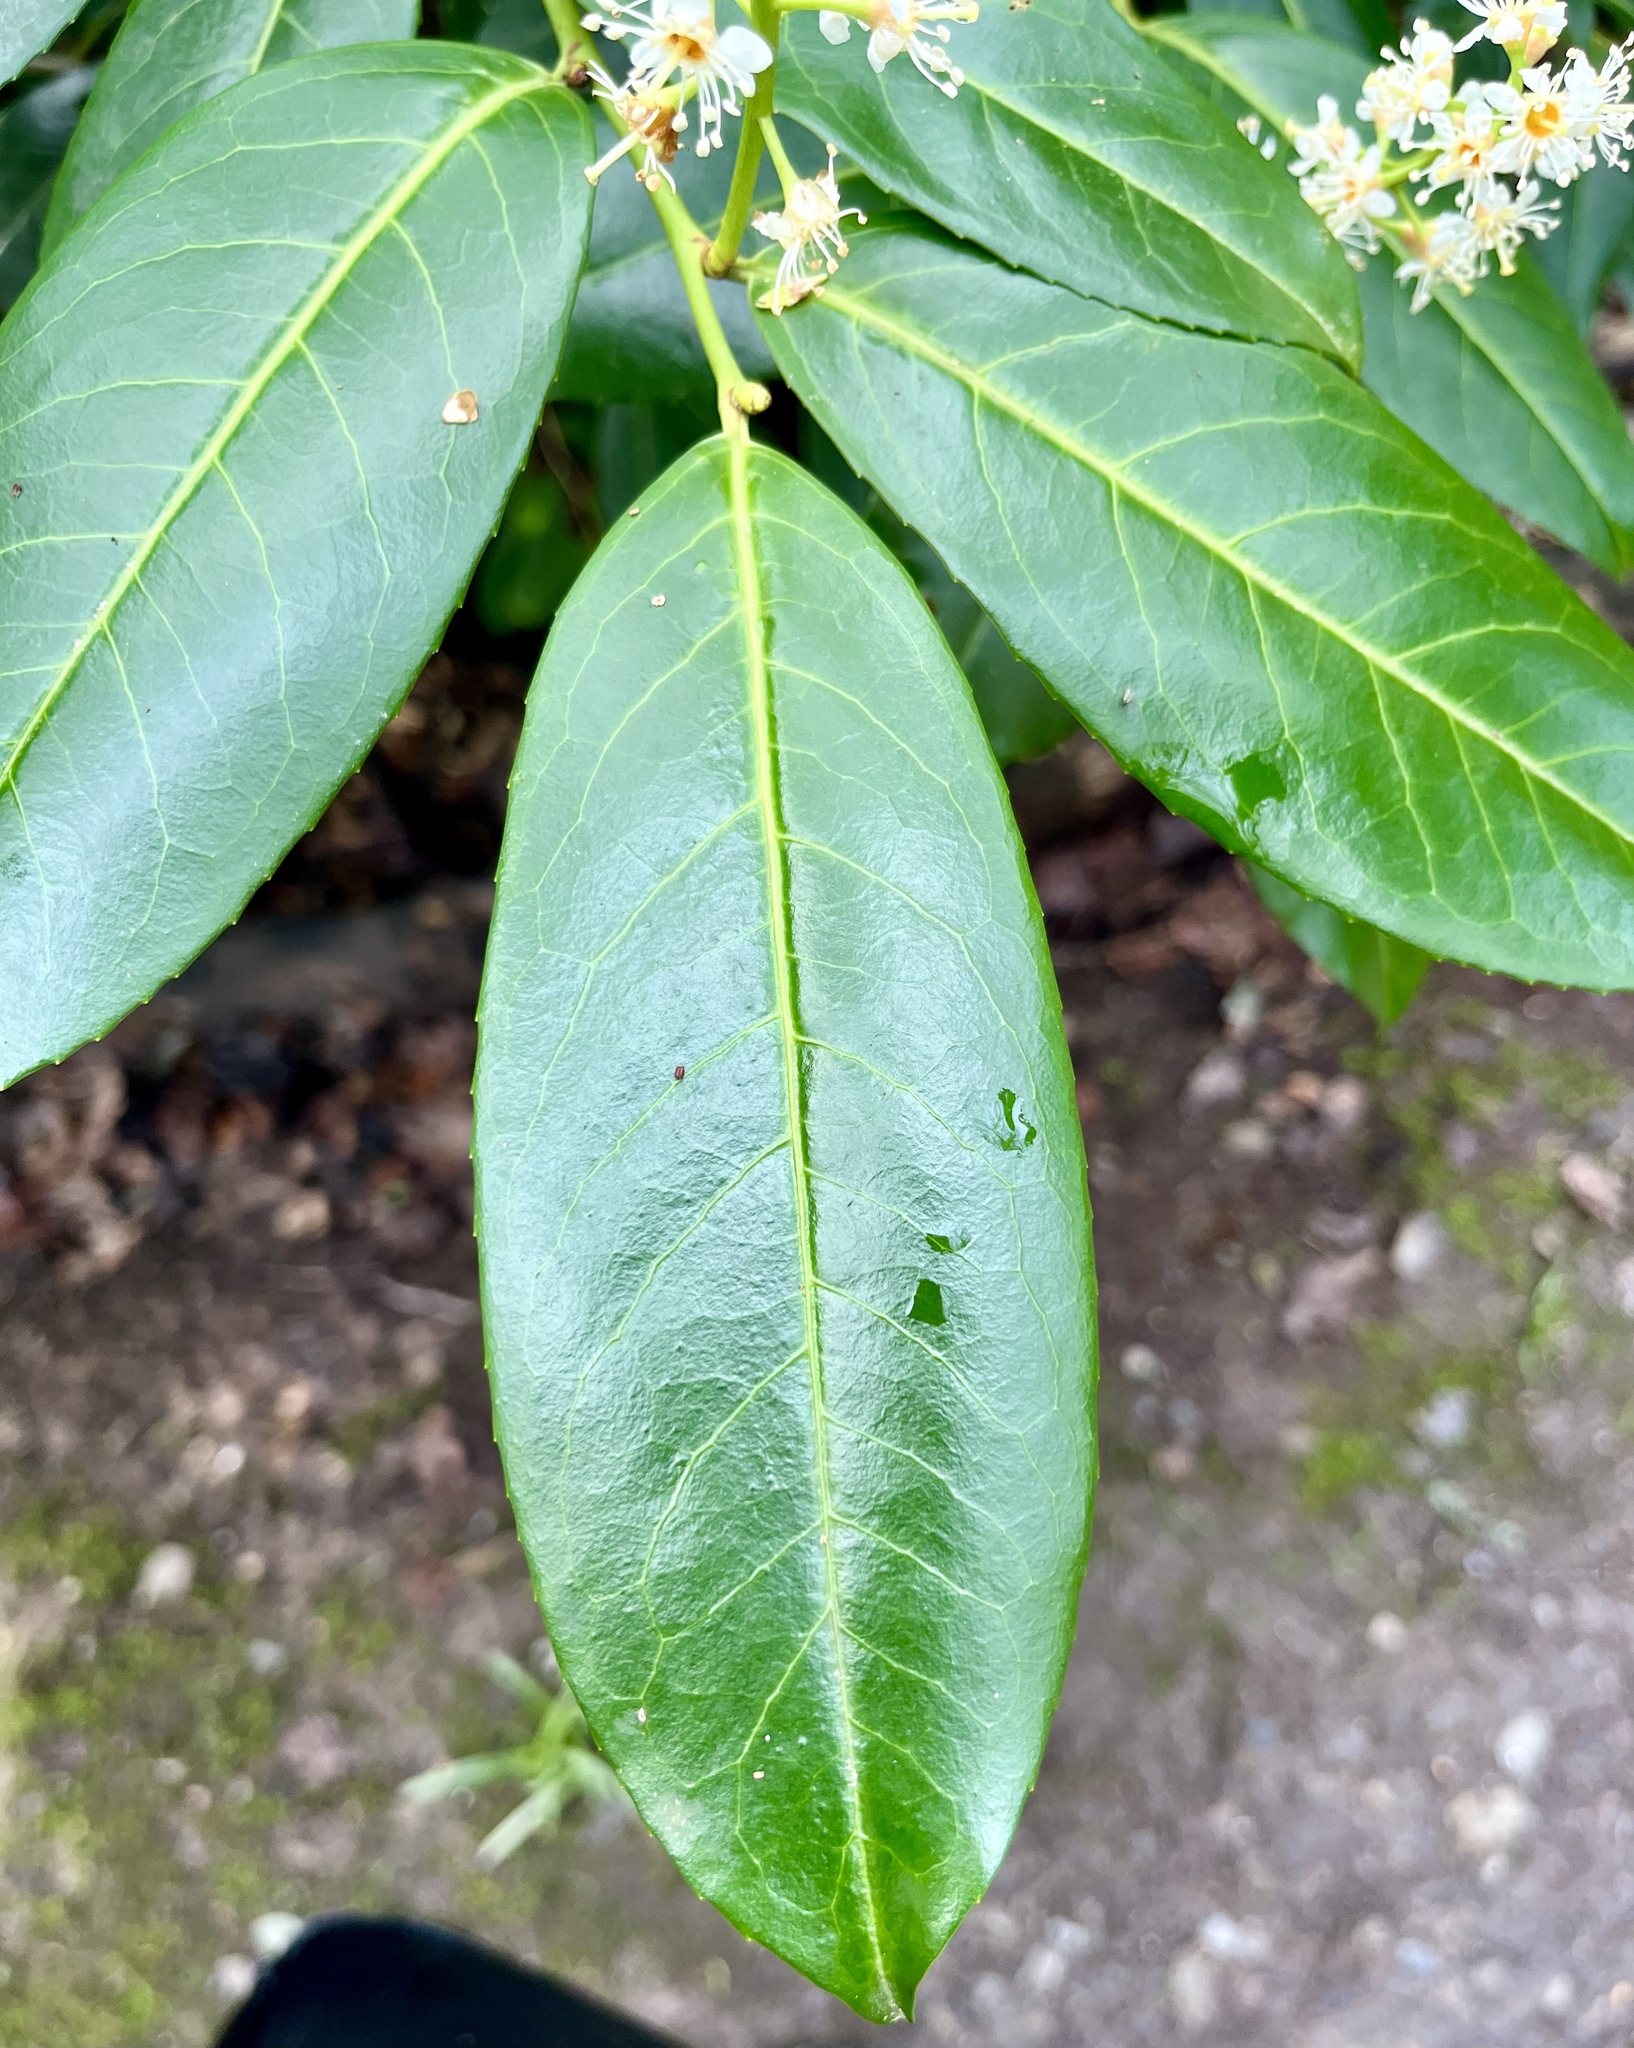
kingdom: Plantae
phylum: Tracheophyta
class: Magnoliopsida
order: Rosales
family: Rosaceae
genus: Prunus
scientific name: Prunus laurocerasus
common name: Cherry laurel
